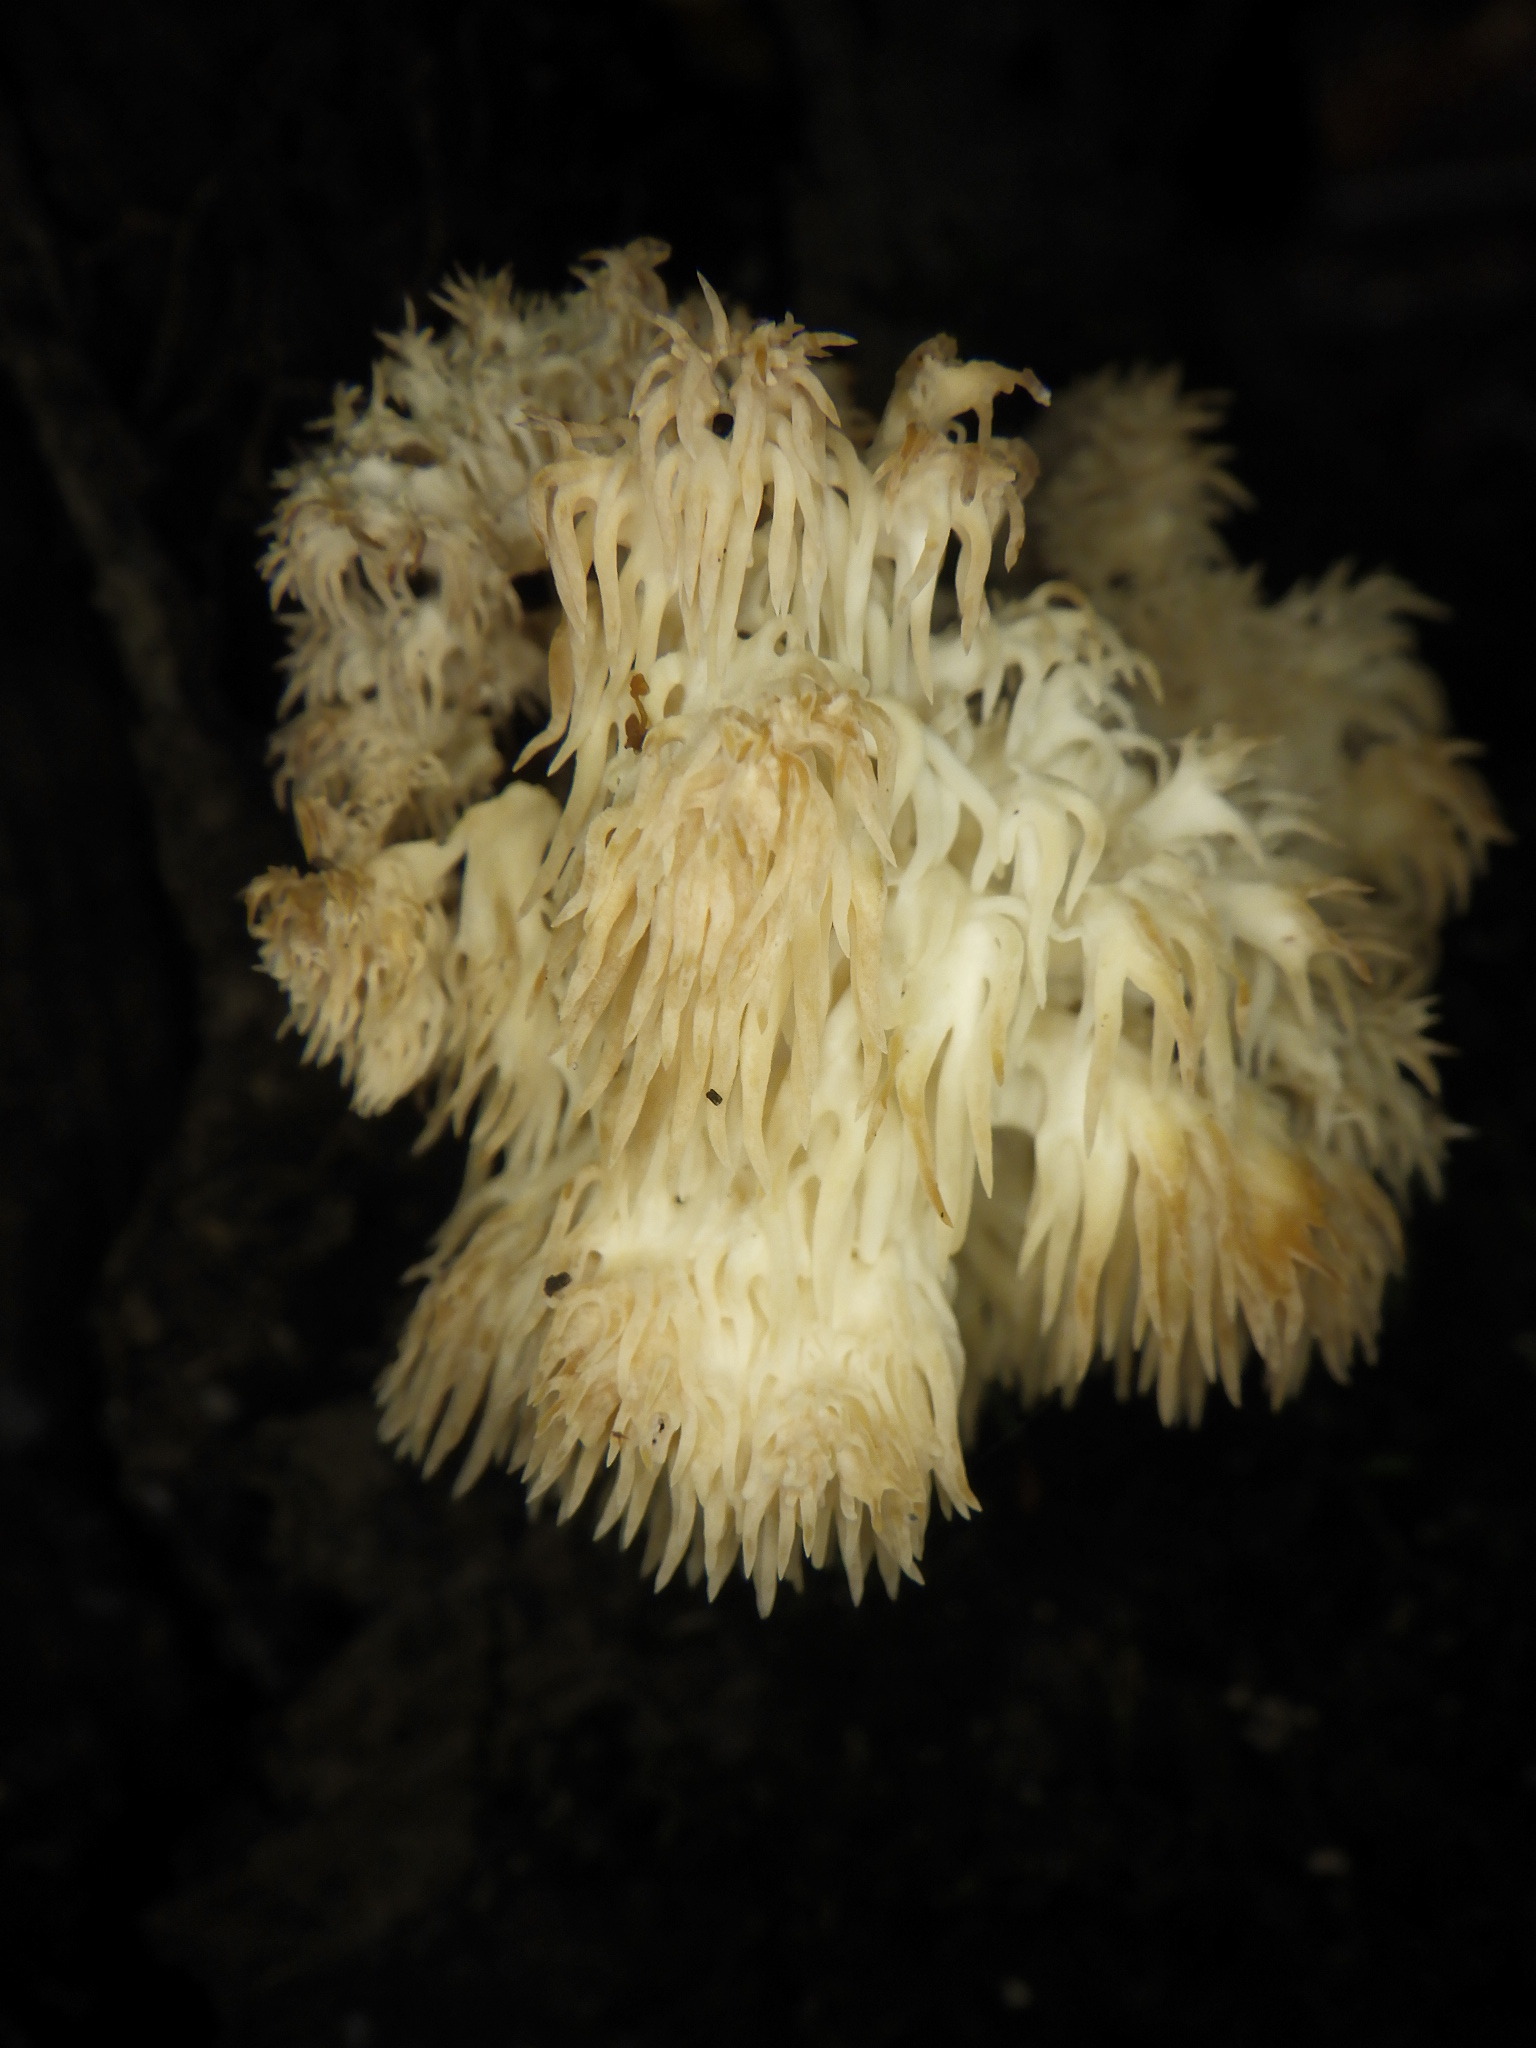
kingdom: Fungi
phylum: Basidiomycota
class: Agaricomycetes
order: Russulales
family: Hericiaceae
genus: Hericium
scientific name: Hericium americanum
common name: Bear's head tooth
